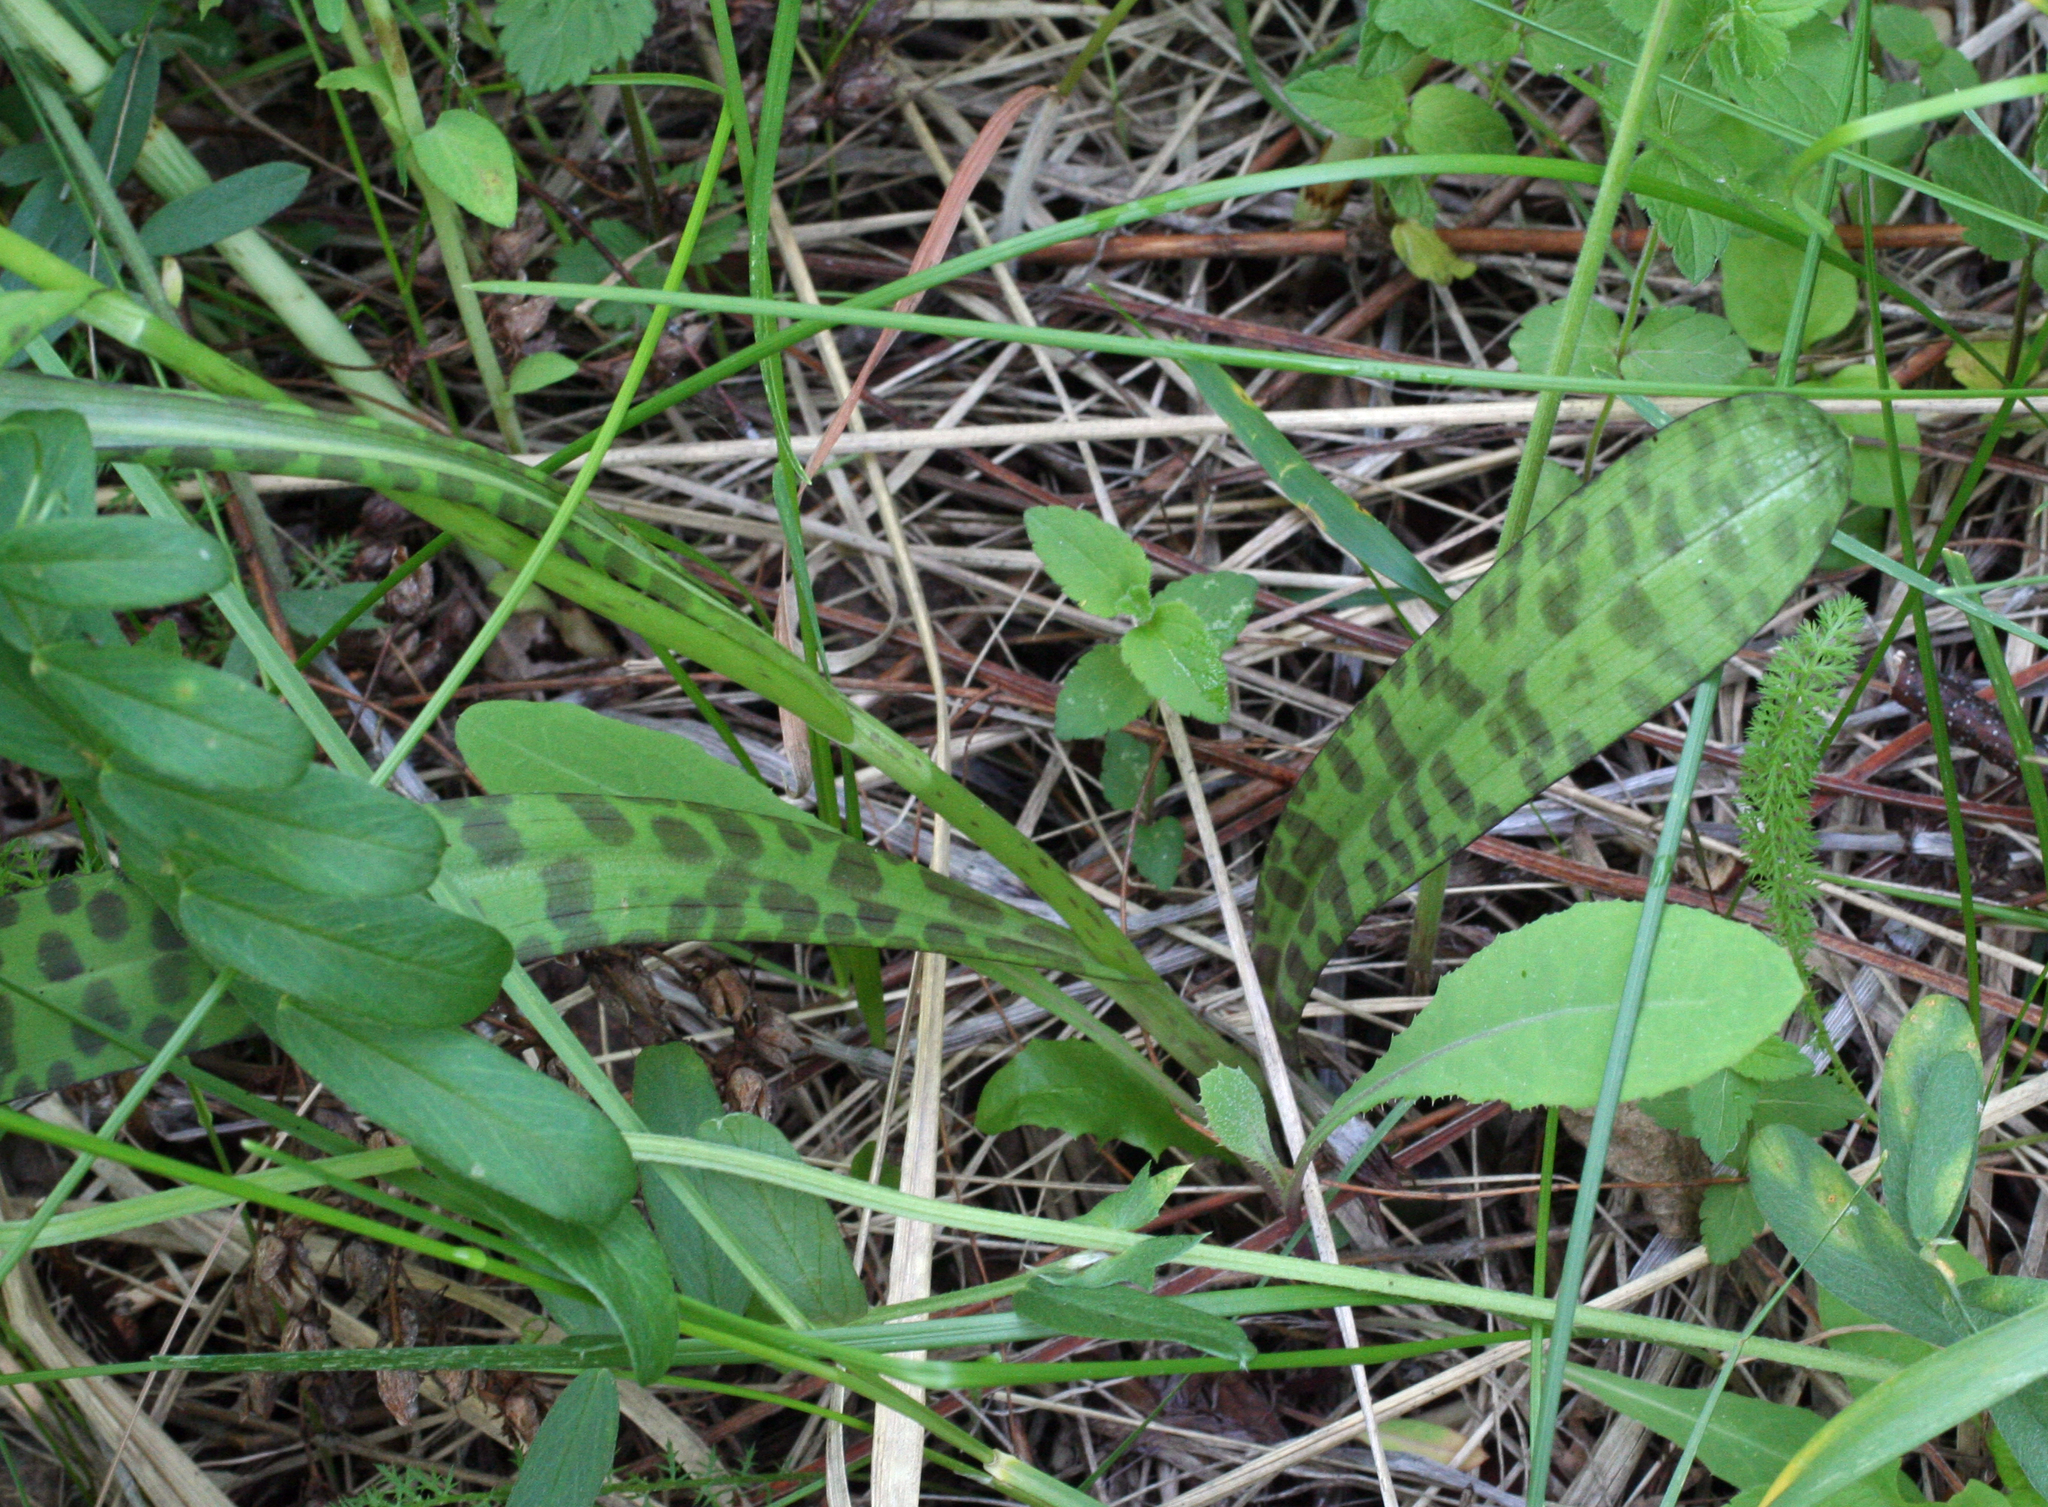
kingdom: Plantae
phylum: Tracheophyta
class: Liliopsida
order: Asparagales
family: Orchidaceae
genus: Dactylorhiza
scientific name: Dactylorhiza maculata
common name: Heath spotted-orchid
